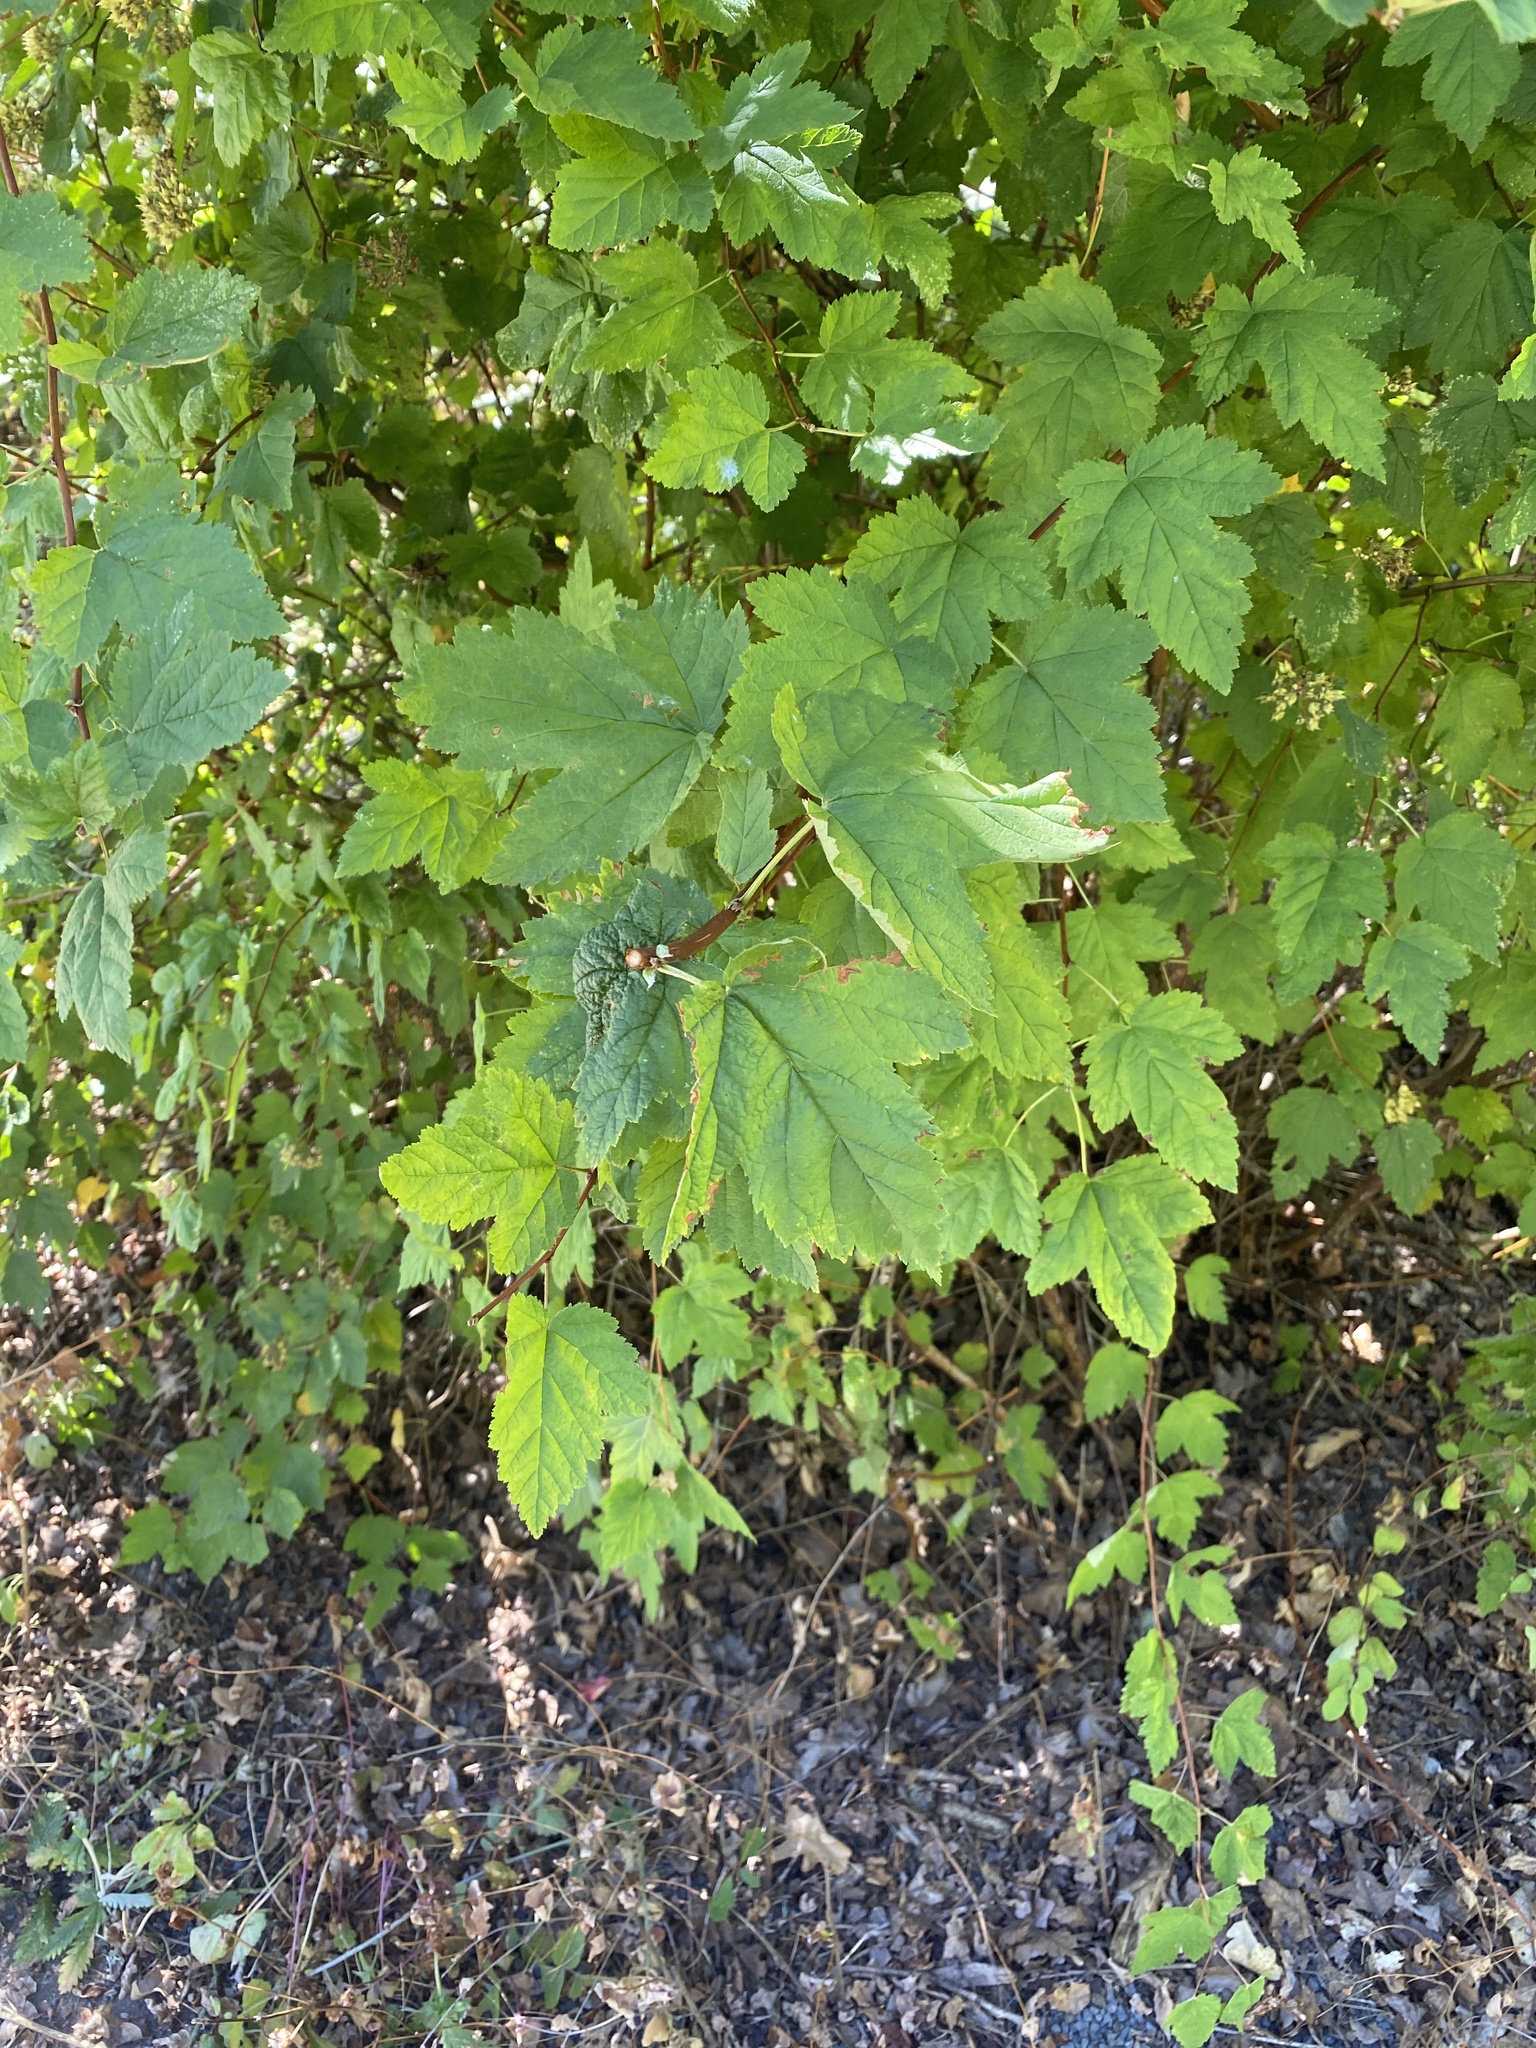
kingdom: Plantae
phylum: Tracheophyta
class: Magnoliopsida
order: Rosales
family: Rosaceae
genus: Physocarpus
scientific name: Physocarpus capitatus
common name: Pacific ninebark
